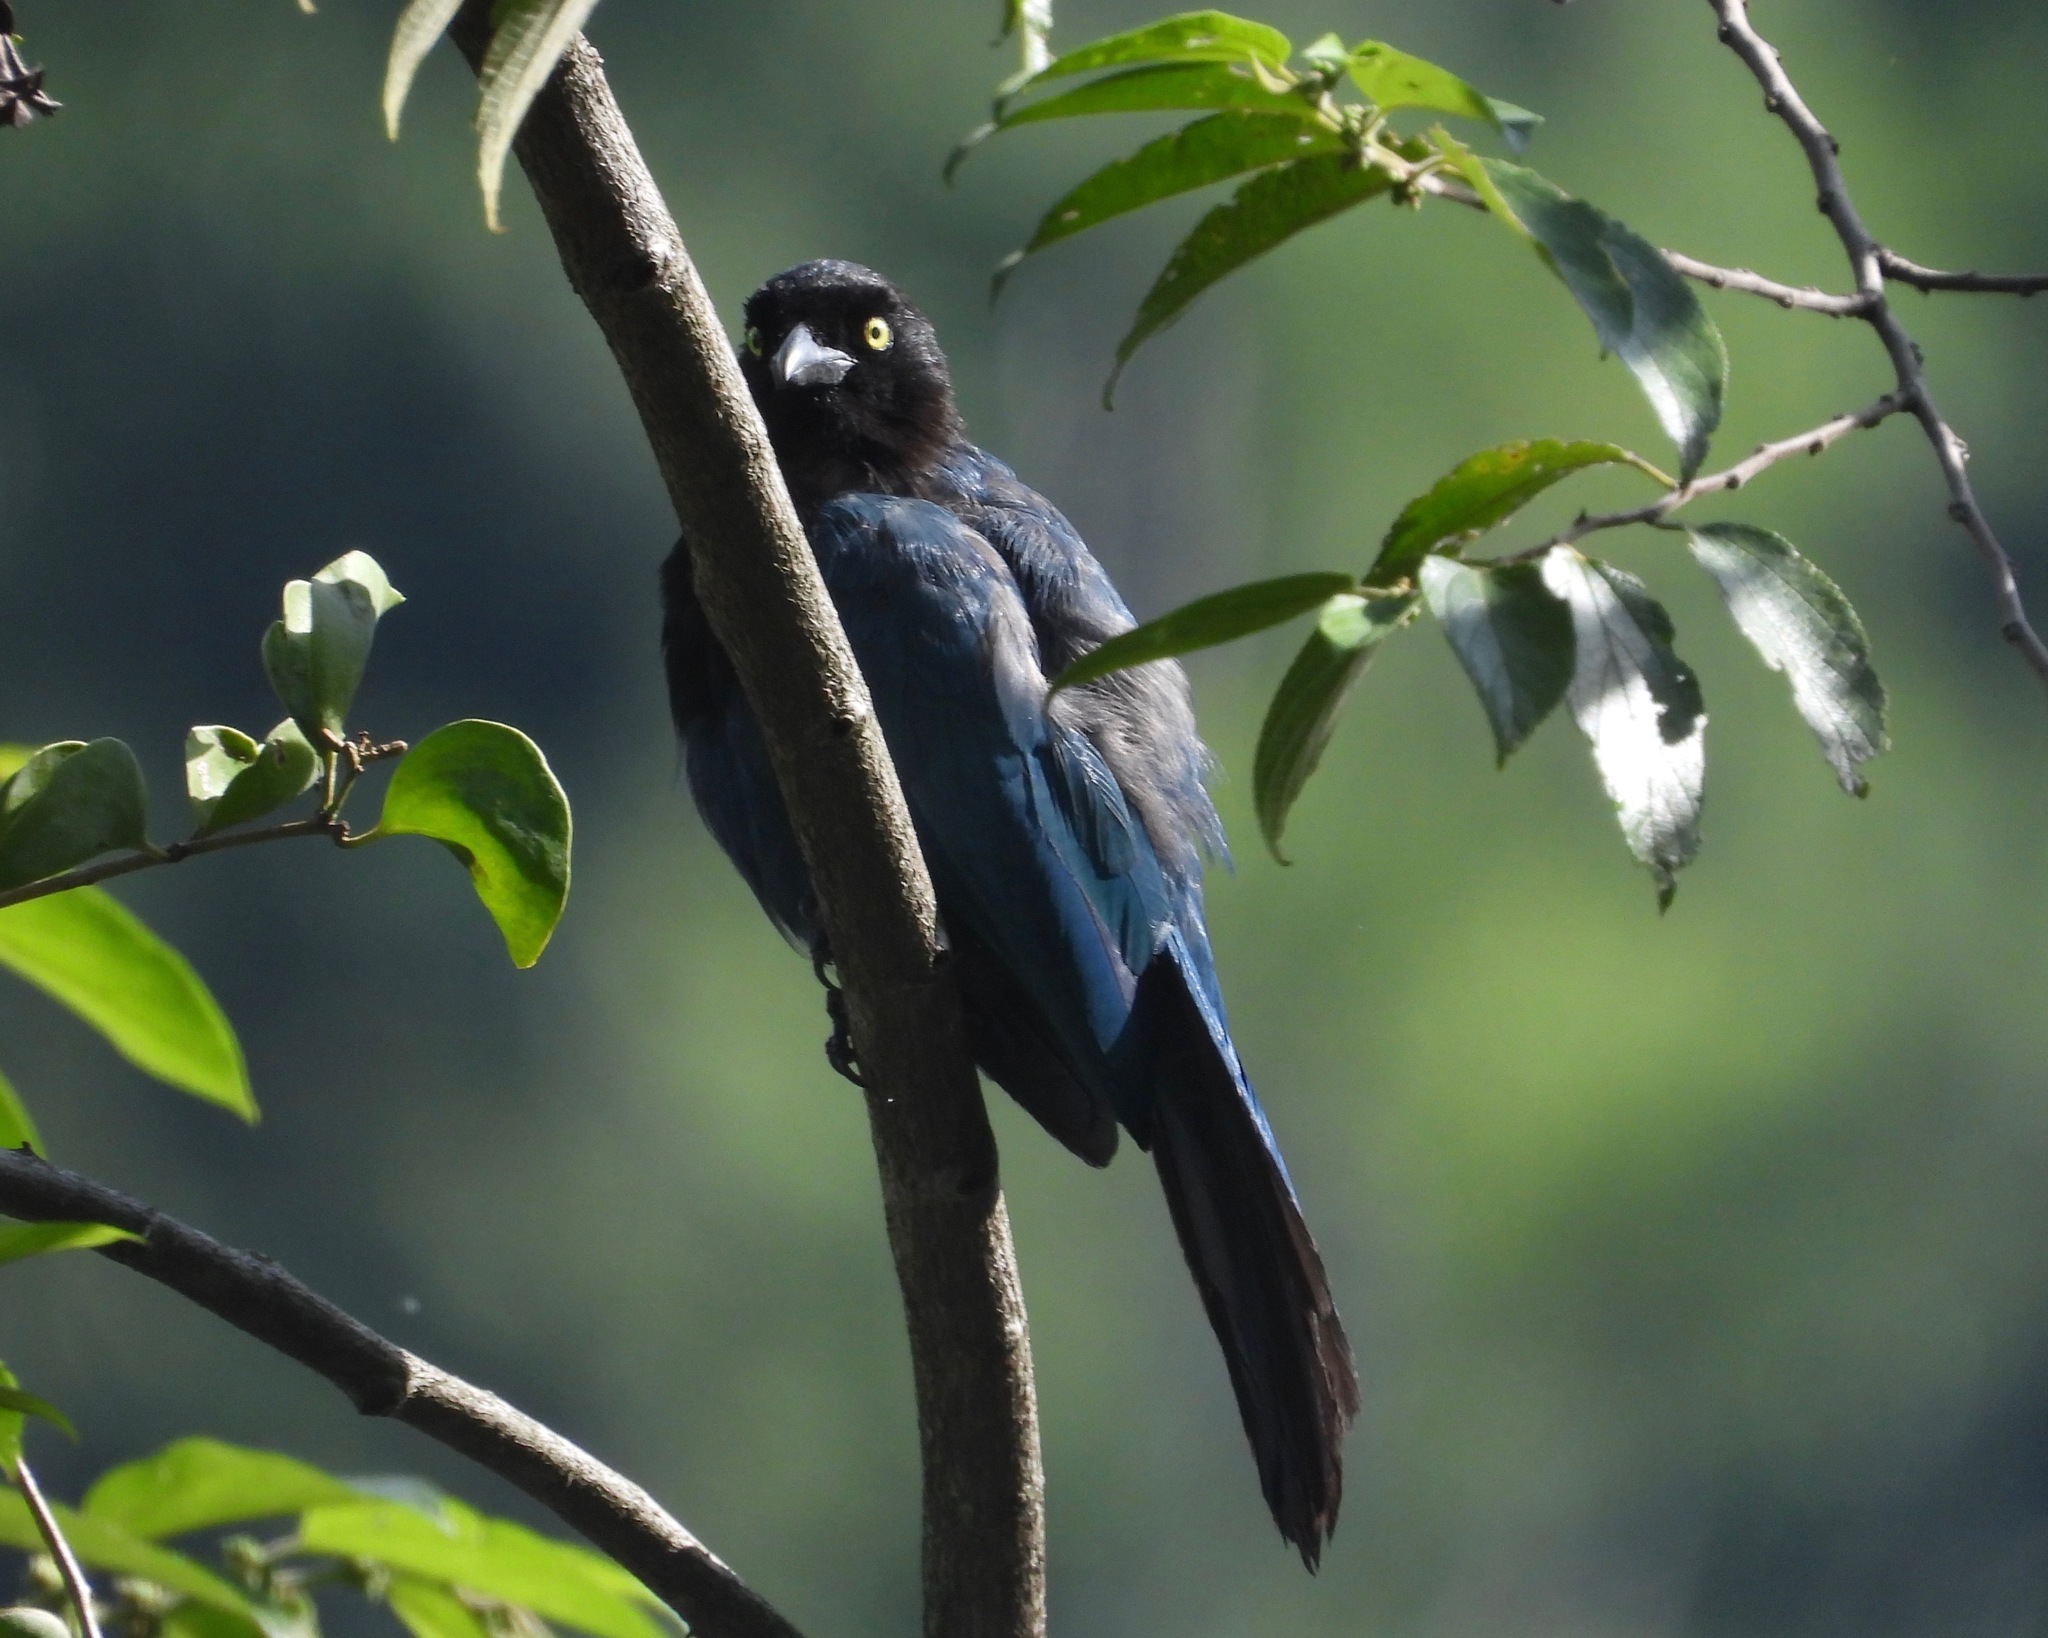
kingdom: Animalia
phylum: Chordata
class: Aves
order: Passeriformes
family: Corvidae
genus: Cyanocorax
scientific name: Cyanocorax melanocyaneus
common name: Bushy-crested jay
